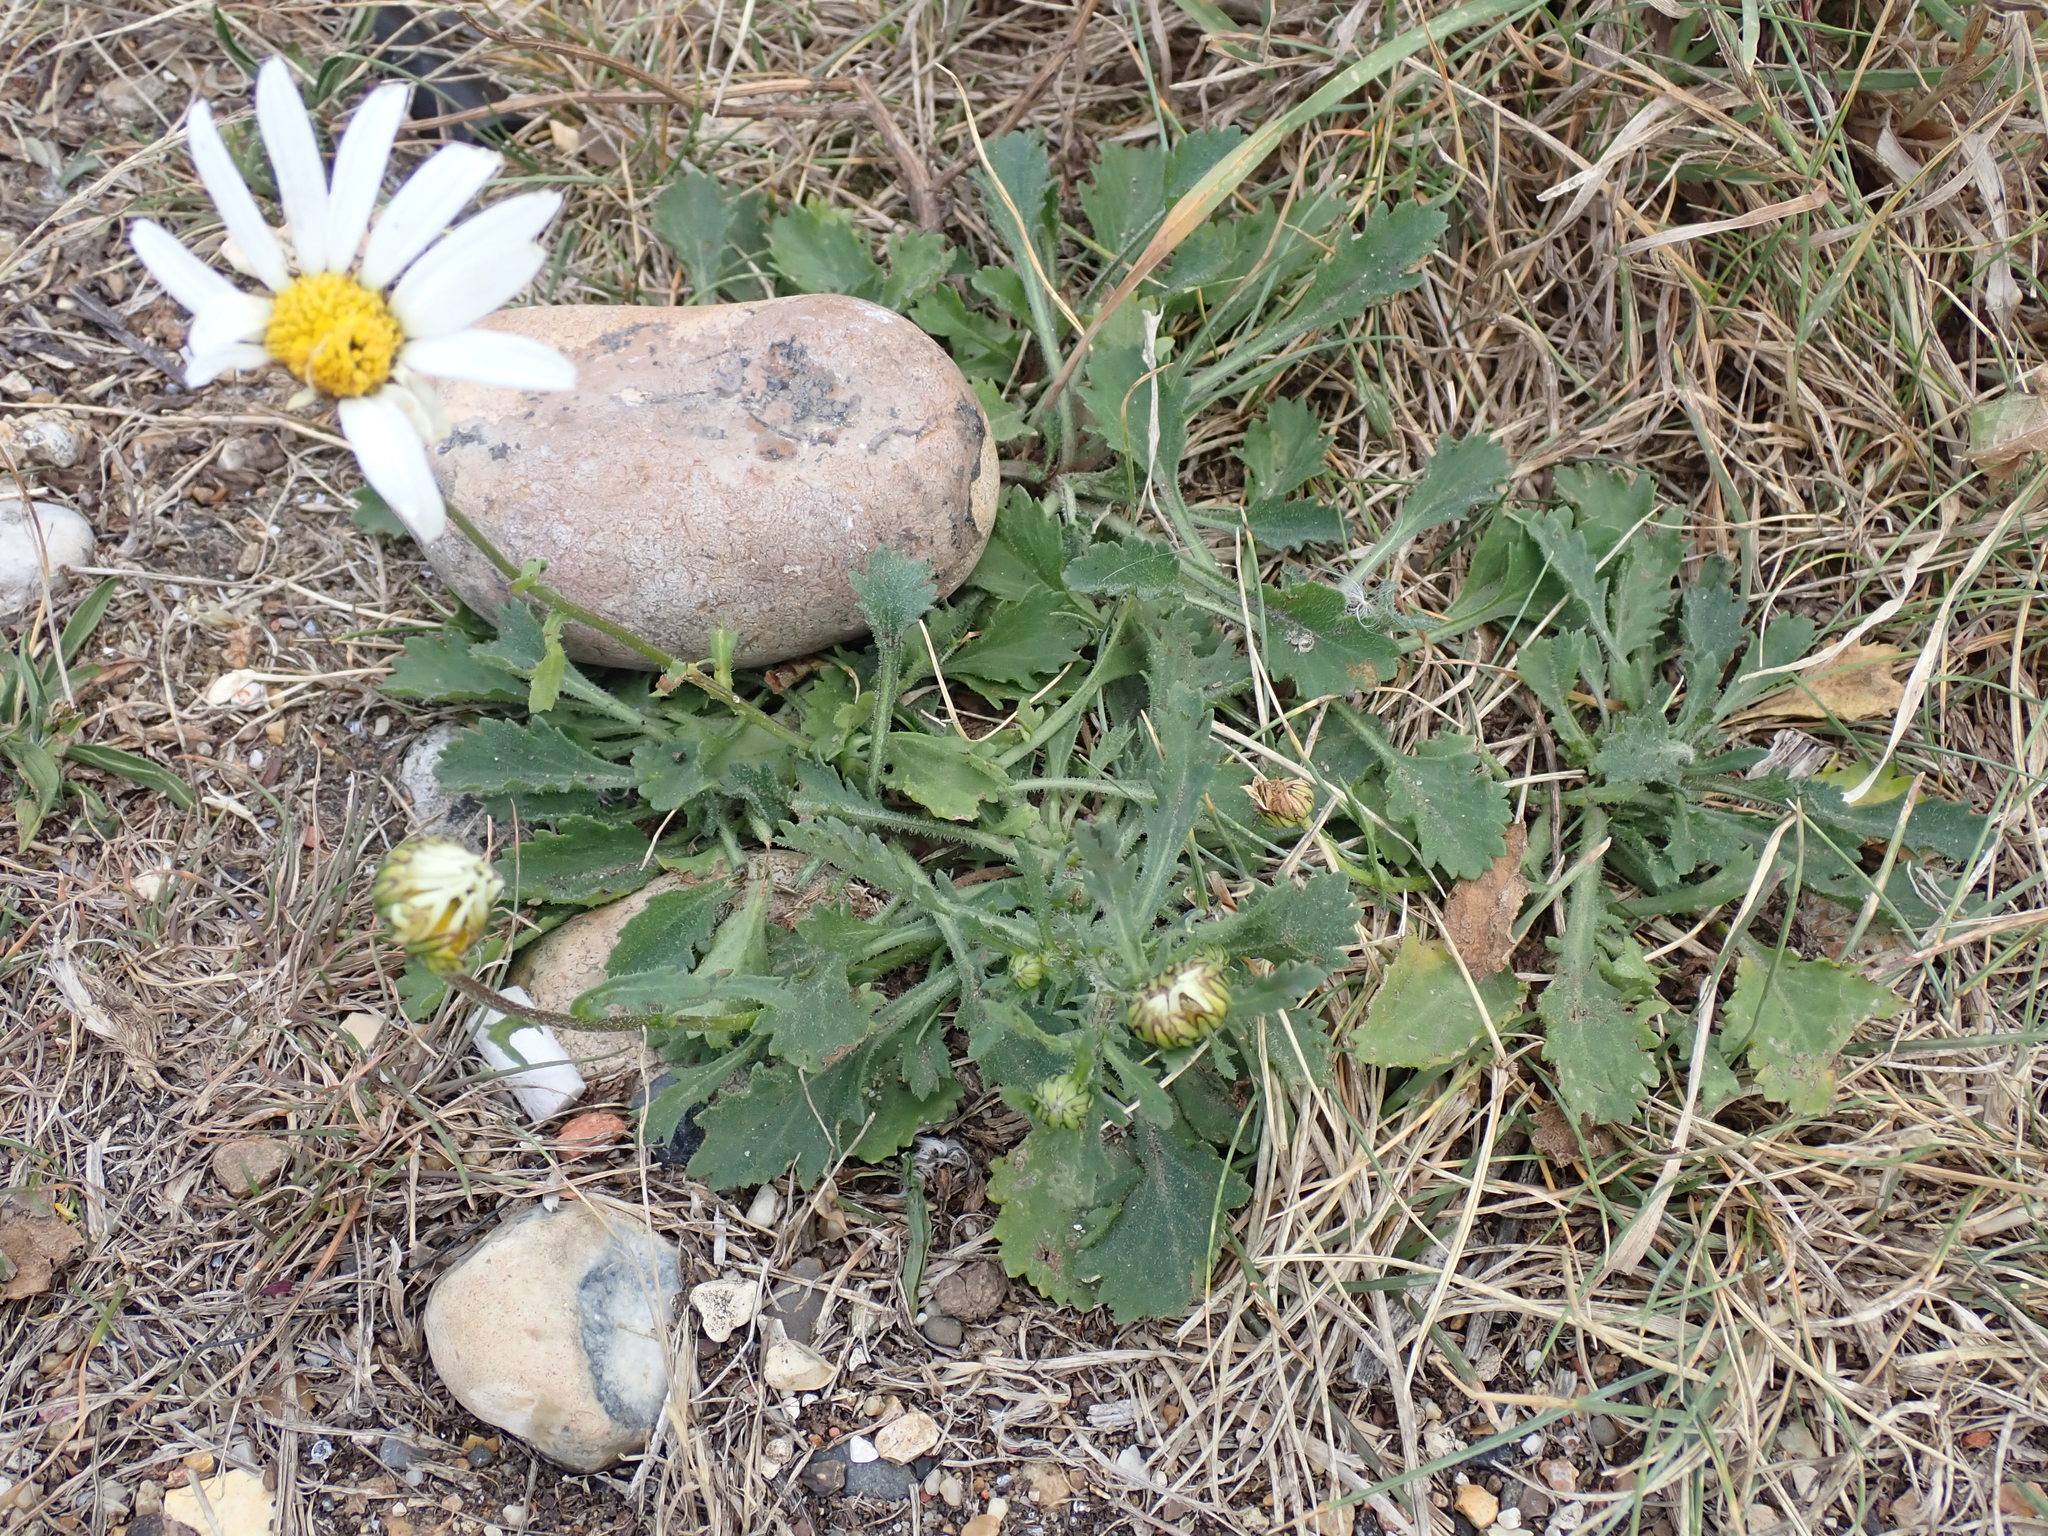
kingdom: Plantae
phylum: Tracheophyta
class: Magnoliopsida
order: Asterales
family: Asteraceae
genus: Leucanthemum
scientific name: Leucanthemum vulgare
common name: Oxeye daisy
